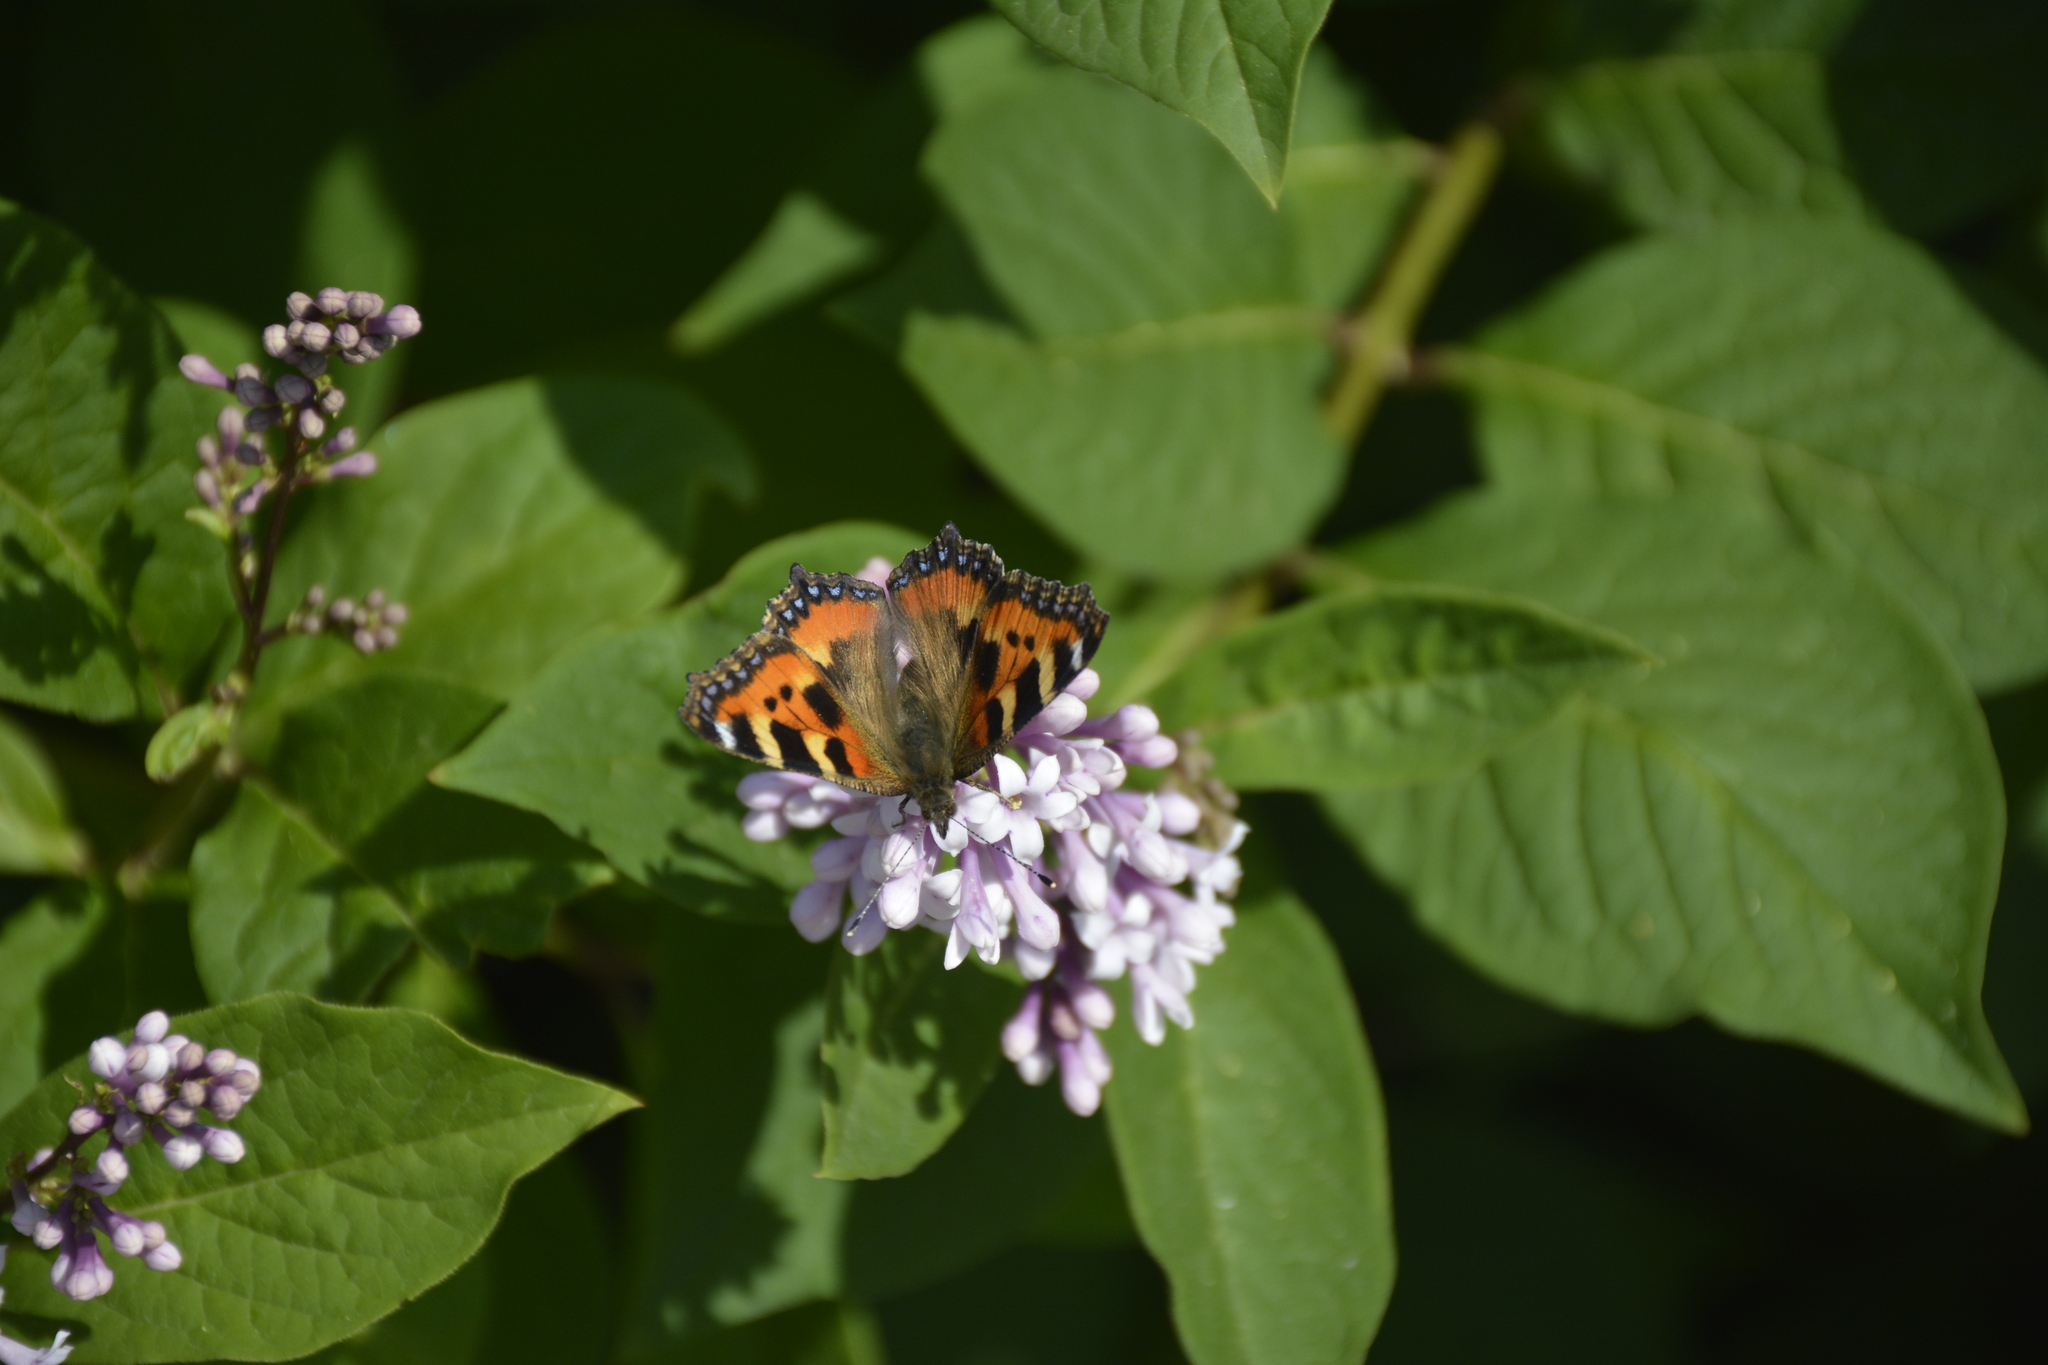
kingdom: Animalia
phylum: Arthropoda
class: Insecta
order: Lepidoptera
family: Nymphalidae
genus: Aglais
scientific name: Aglais urticae
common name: Small tortoiseshell
